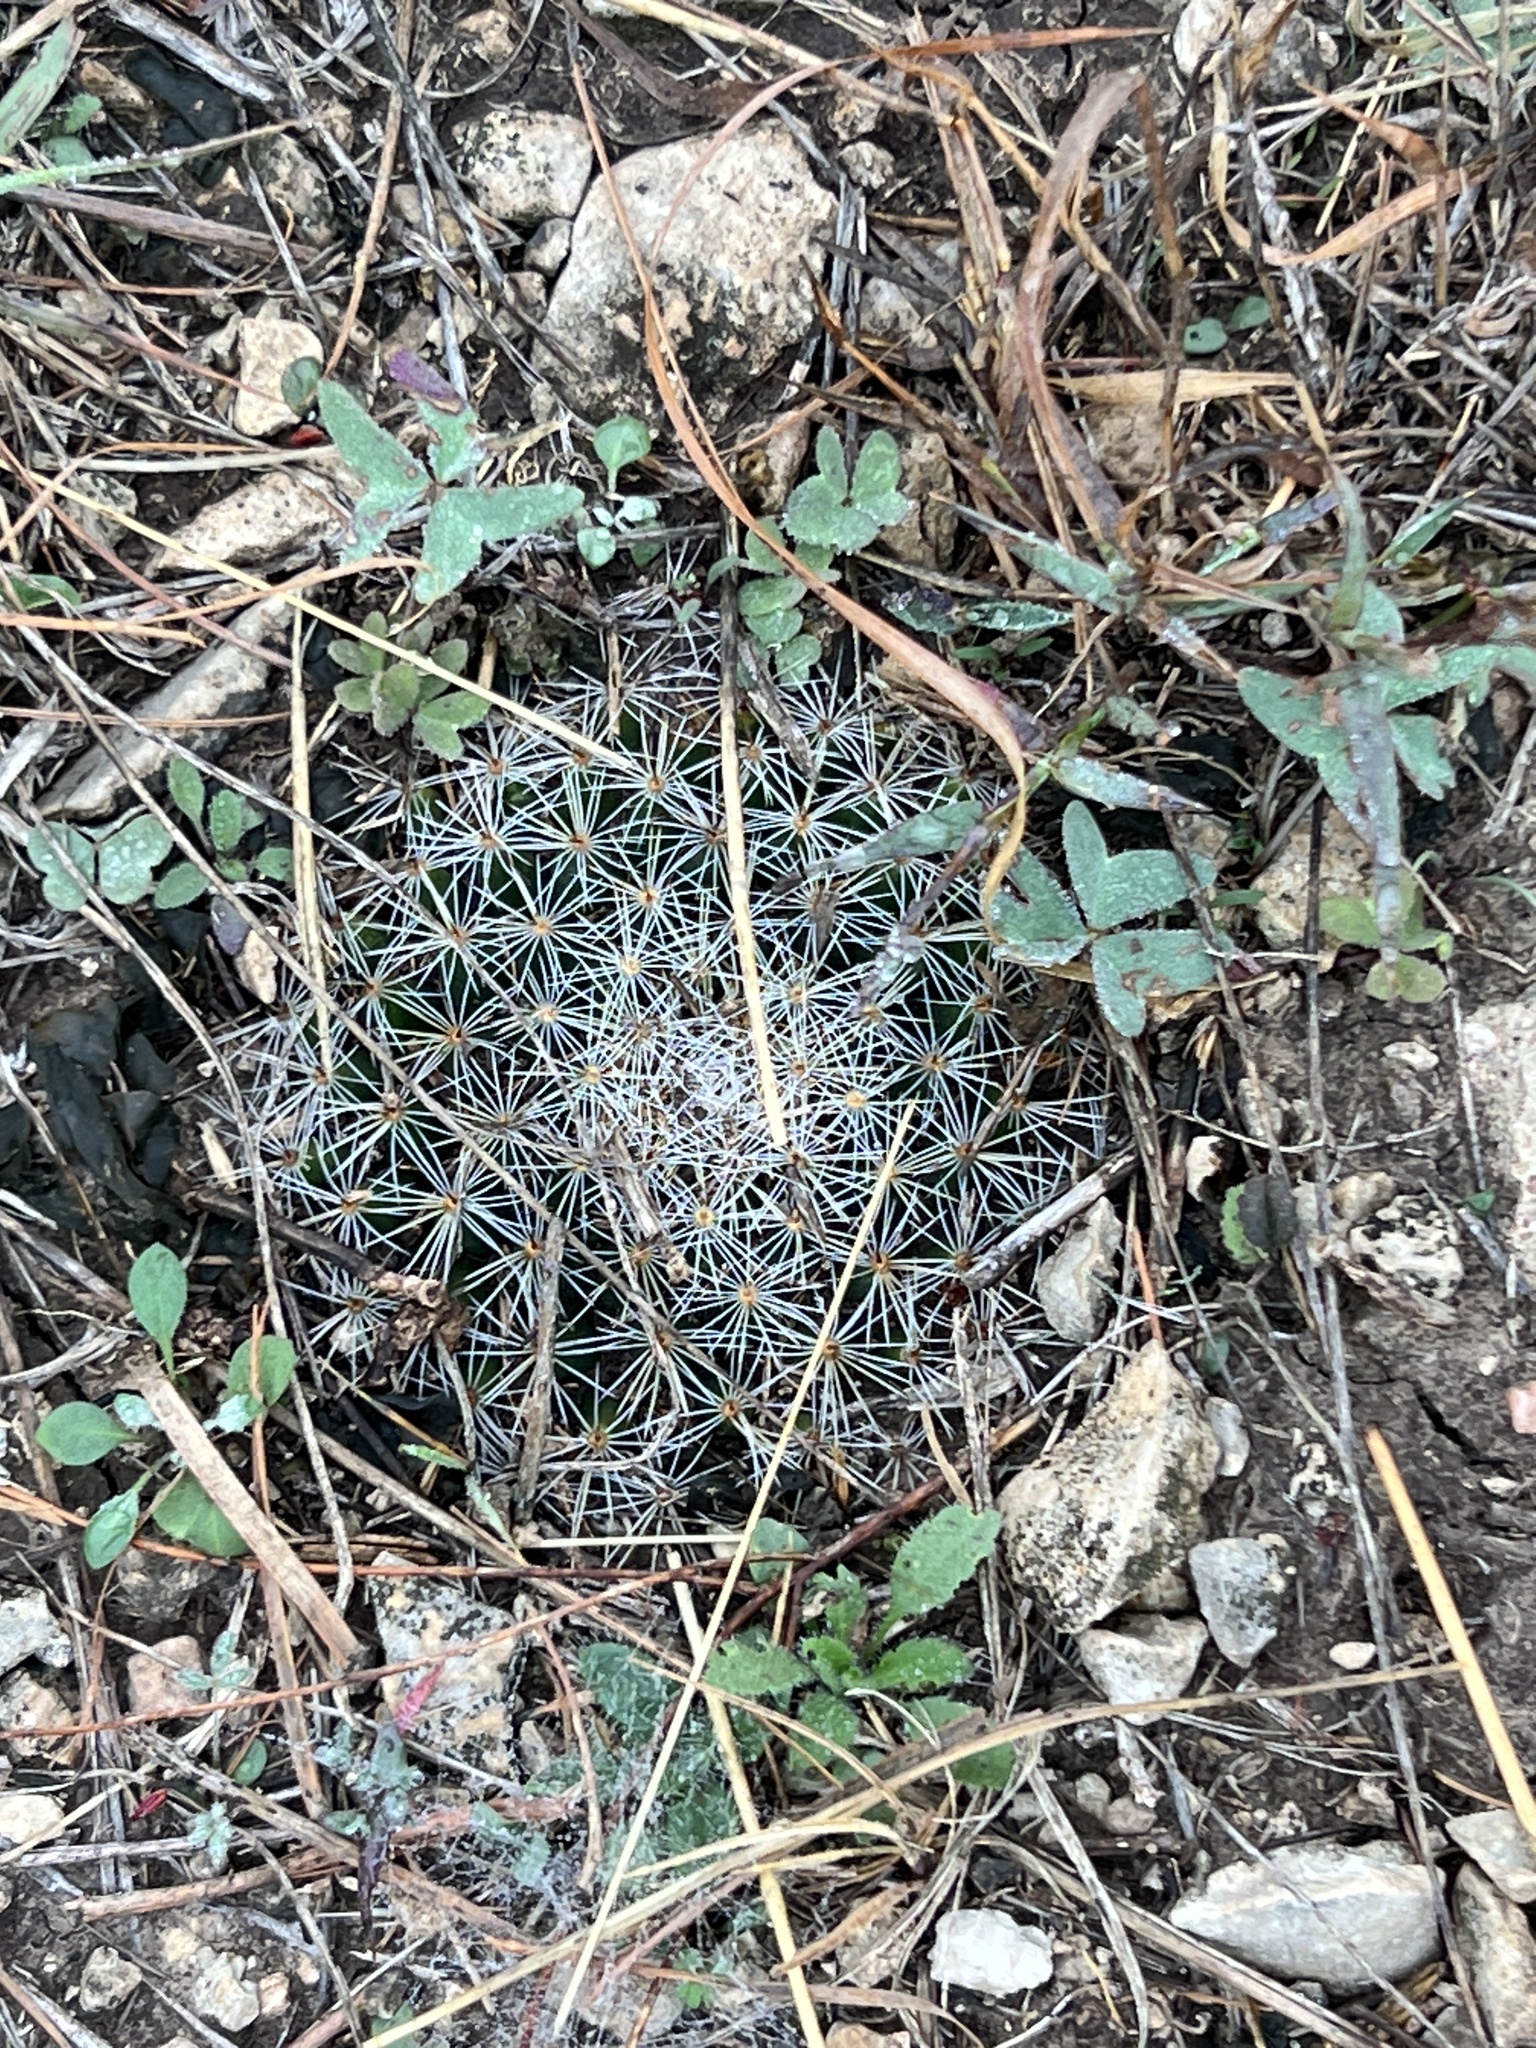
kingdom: Plantae
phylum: Tracheophyta
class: Magnoliopsida
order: Caryophyllales
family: Cactaceae
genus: Mammillaria
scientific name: Mammillaria heyderi
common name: Little nipple cactus
